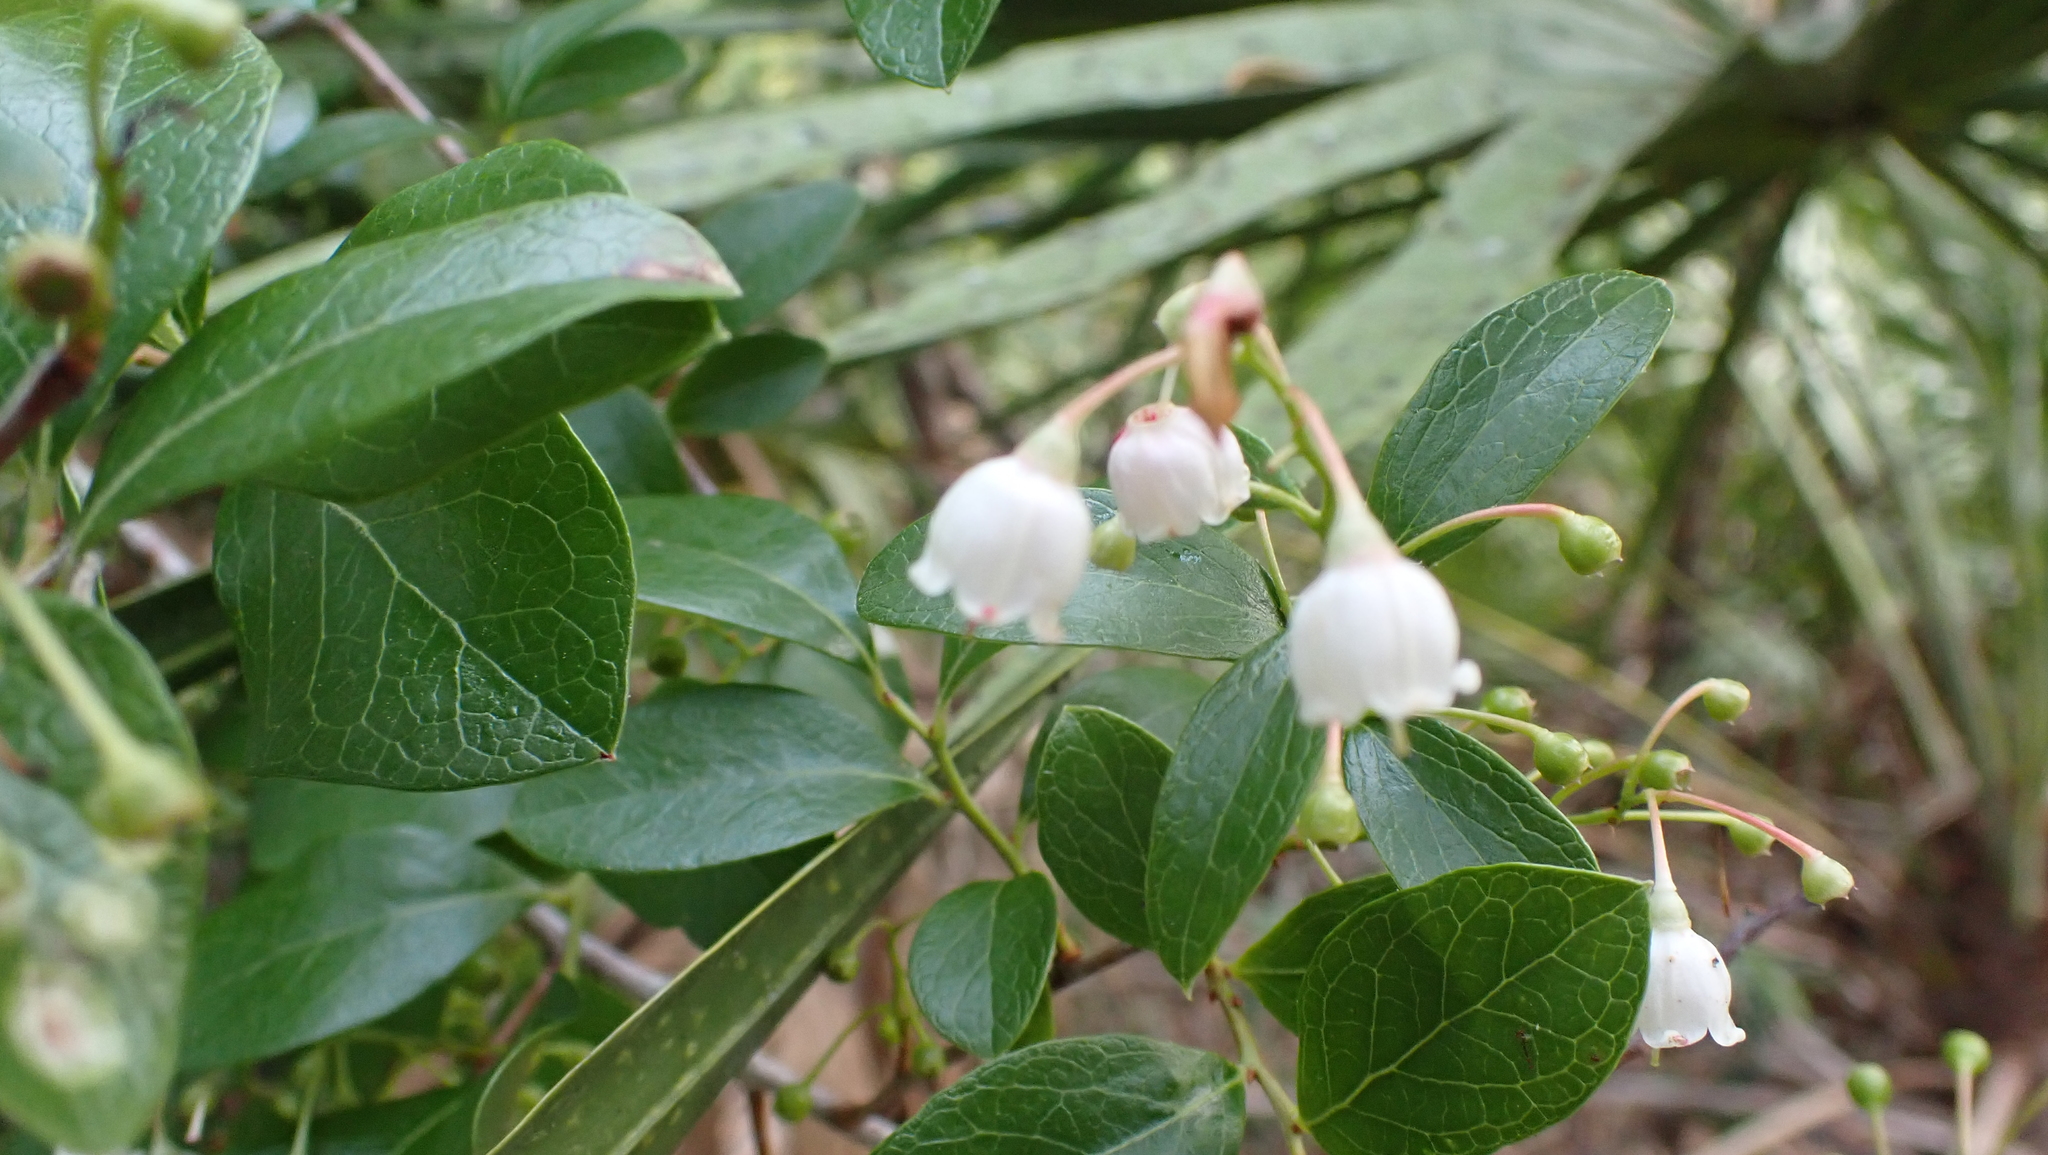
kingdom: Plantae
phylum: Tracheophyta
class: Magnoliopsida
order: Ericales
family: Ericaceae
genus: Vaccinium
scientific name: Vaccinium arboreum
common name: Farkleberry
